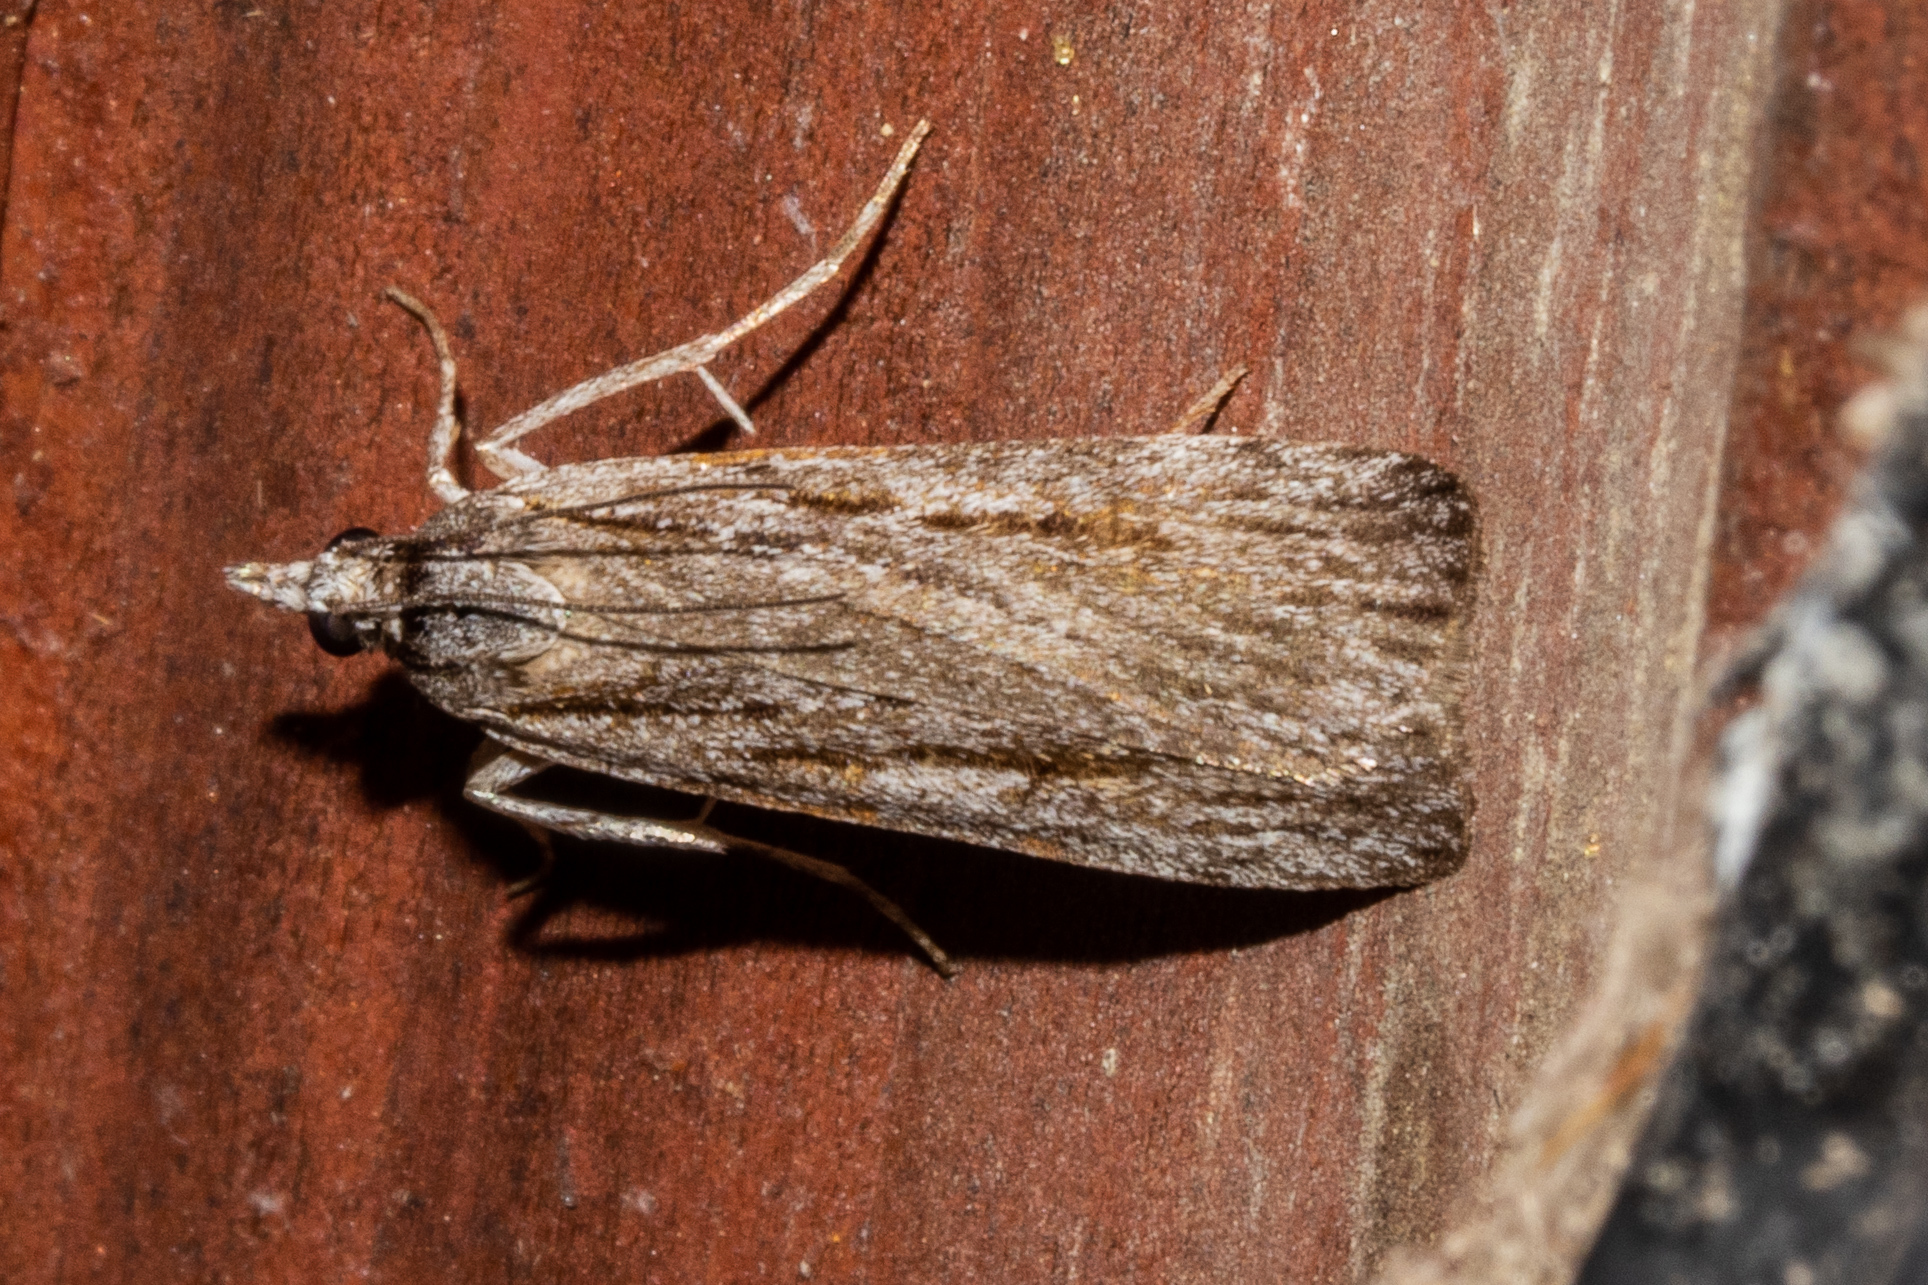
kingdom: Animalia
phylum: Arthropoda
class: Insecta
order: Lepidoptera
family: Crambidae
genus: Eudonia
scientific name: Eudonia paltomacha
